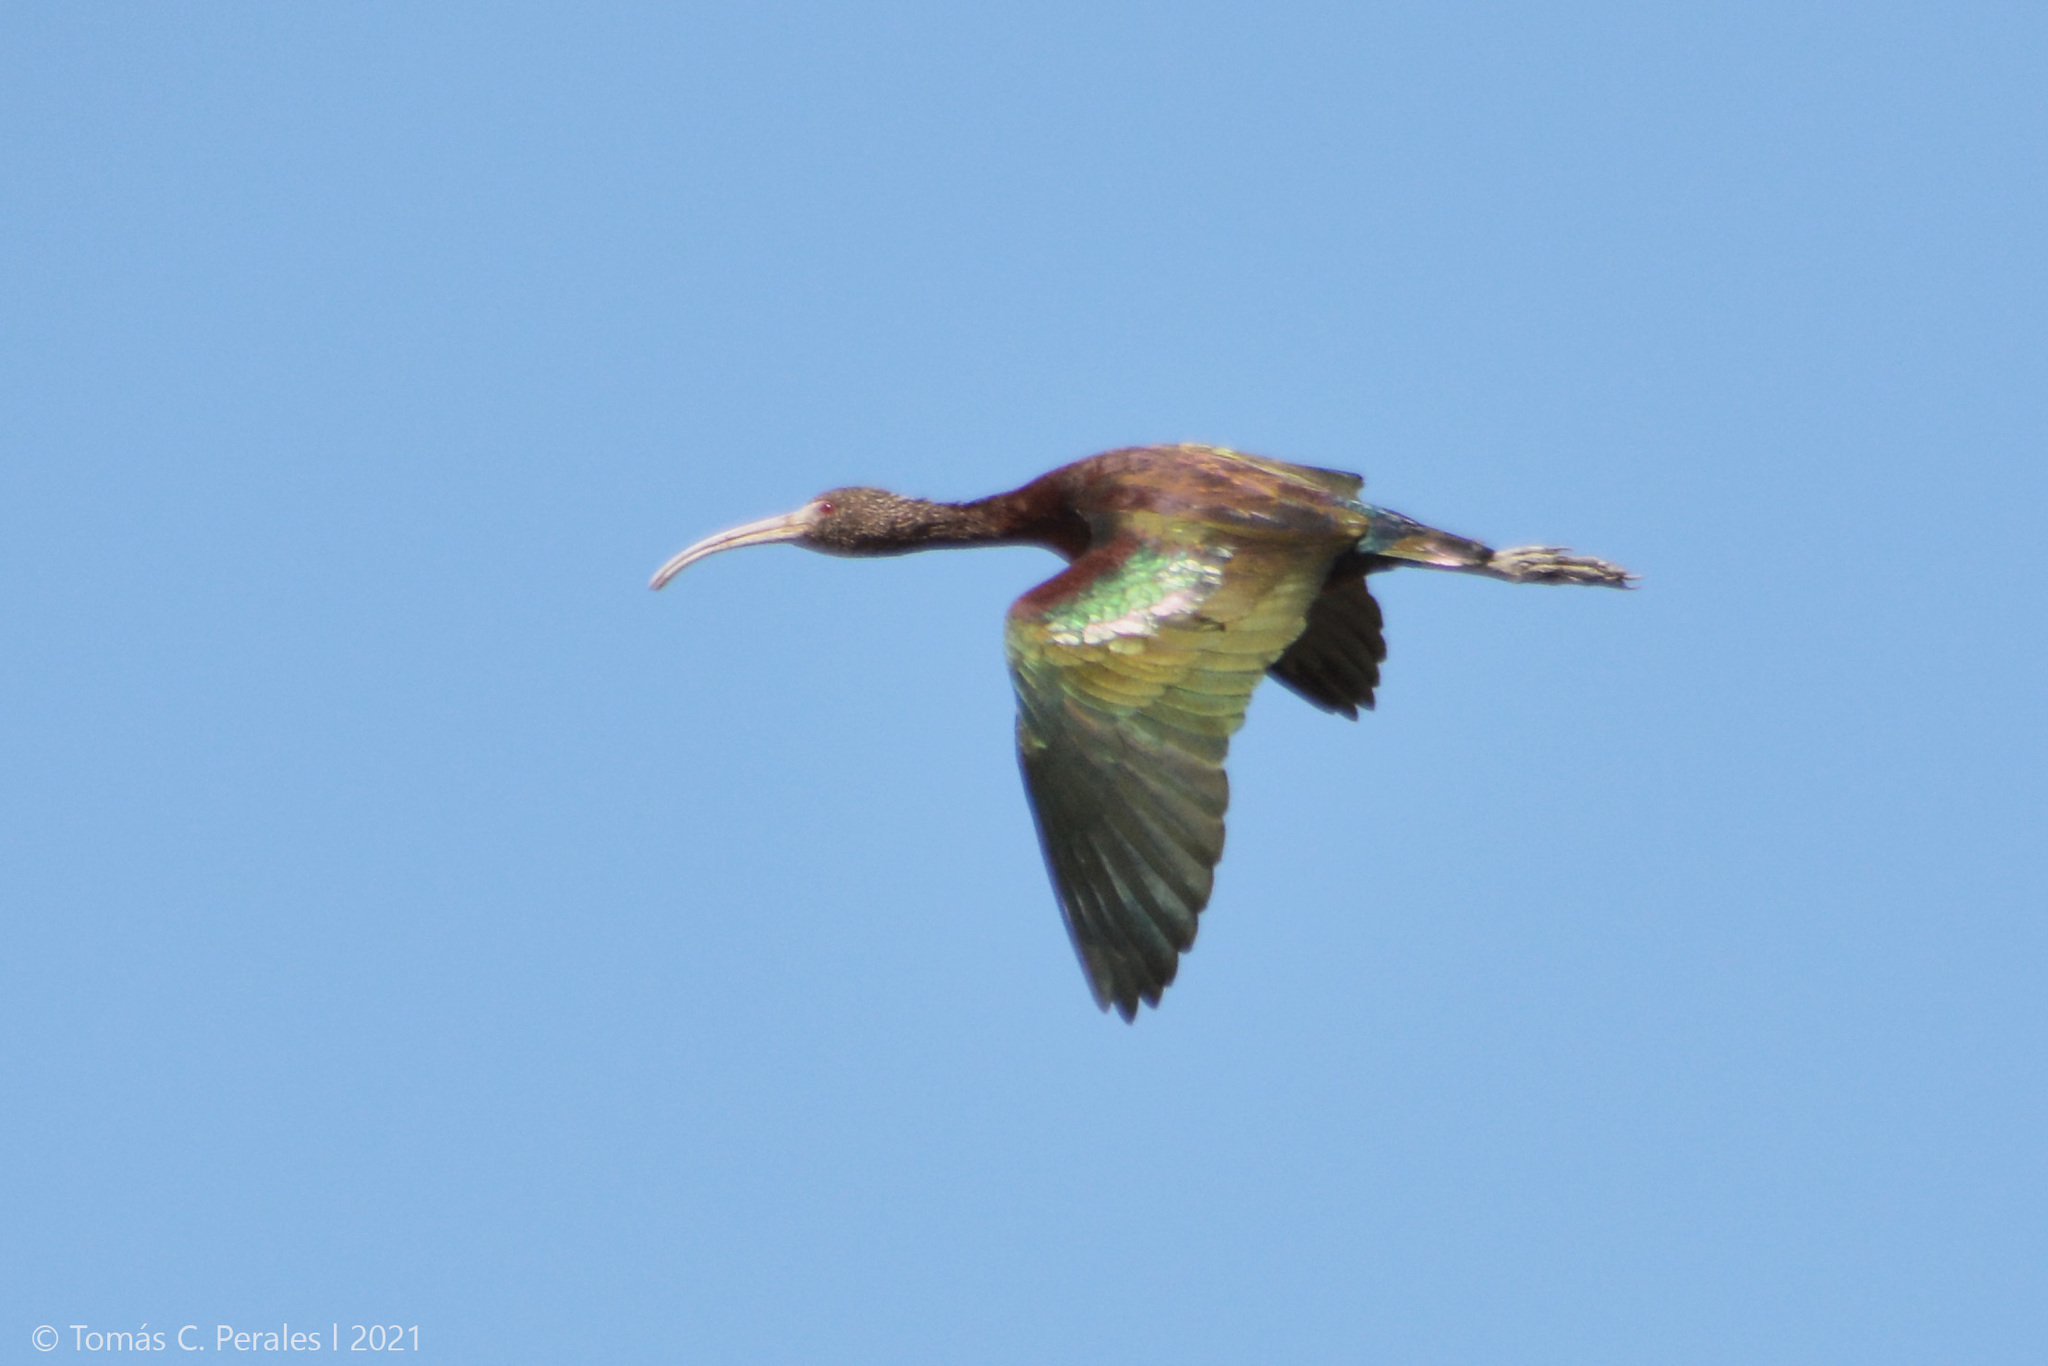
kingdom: Animalia
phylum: Chordata
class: Aves
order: Pelecaniformes
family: Threskiornithidae
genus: Plegadis
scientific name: Plegadis chihi
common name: White-faced ibis
